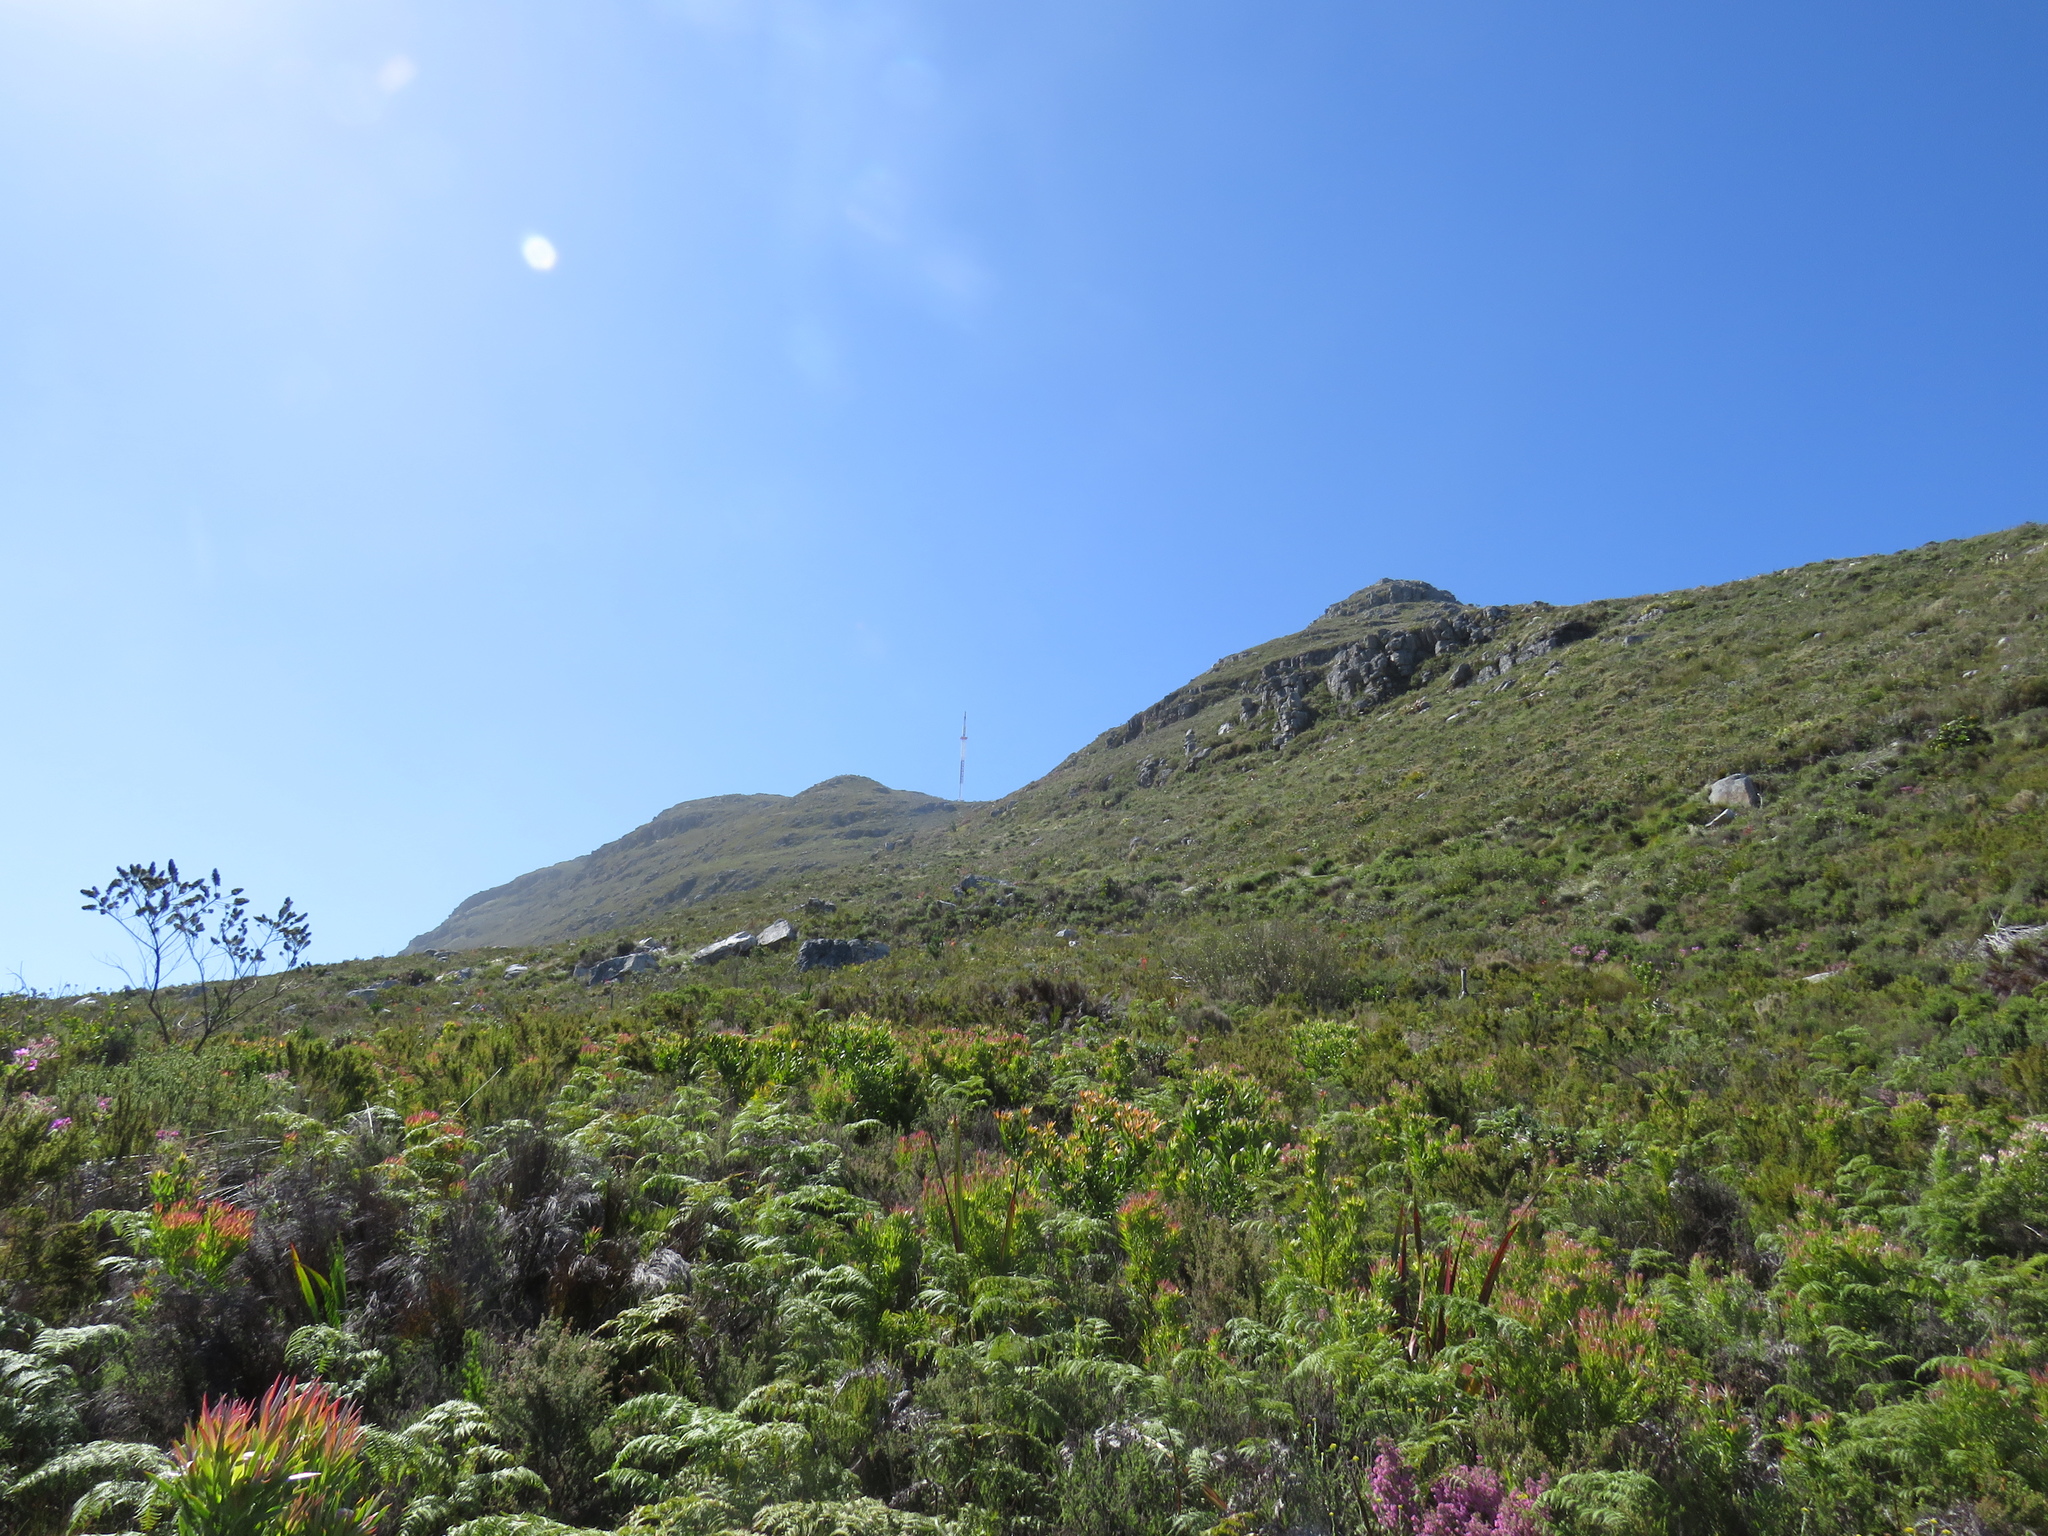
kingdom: Plantae
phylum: Tracheophyta
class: Polypodiopsida
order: Polypodiales
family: Dennstaedtiaceae
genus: Pteridium
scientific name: Pteridium aquilinum
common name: Bracken
